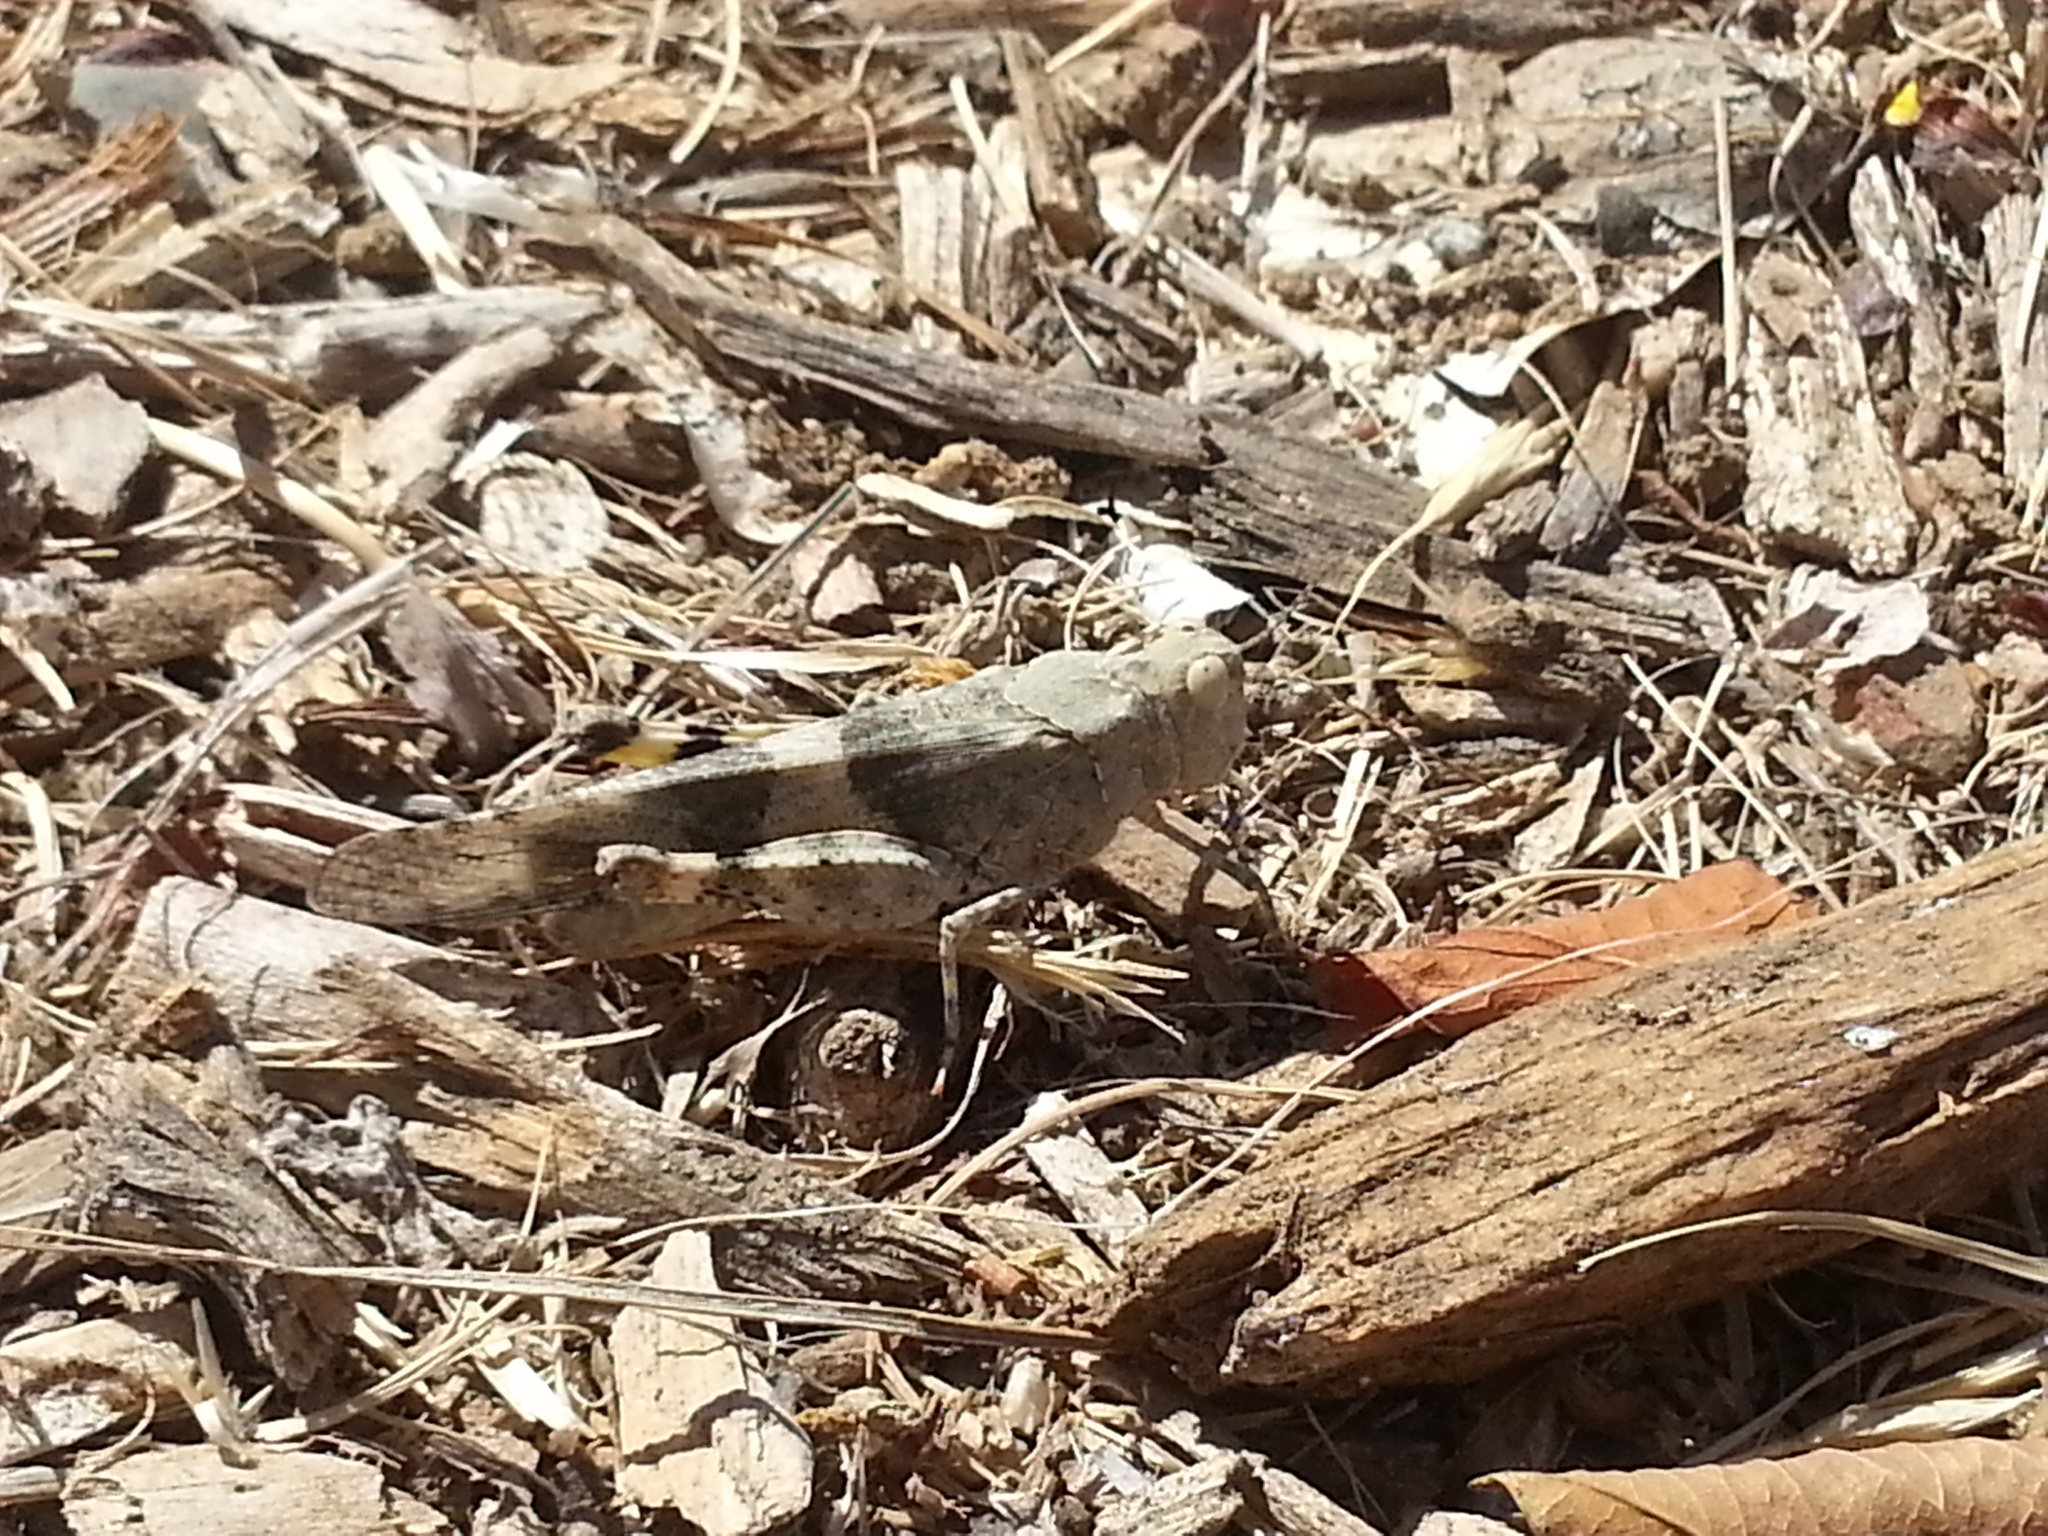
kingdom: Animalia
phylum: Arthropoda
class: Insecta
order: Orthoptera
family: Acrididae
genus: Trimerotropis
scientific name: Trimerotropis pallidipennis
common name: Pallid-winged grasshopper
